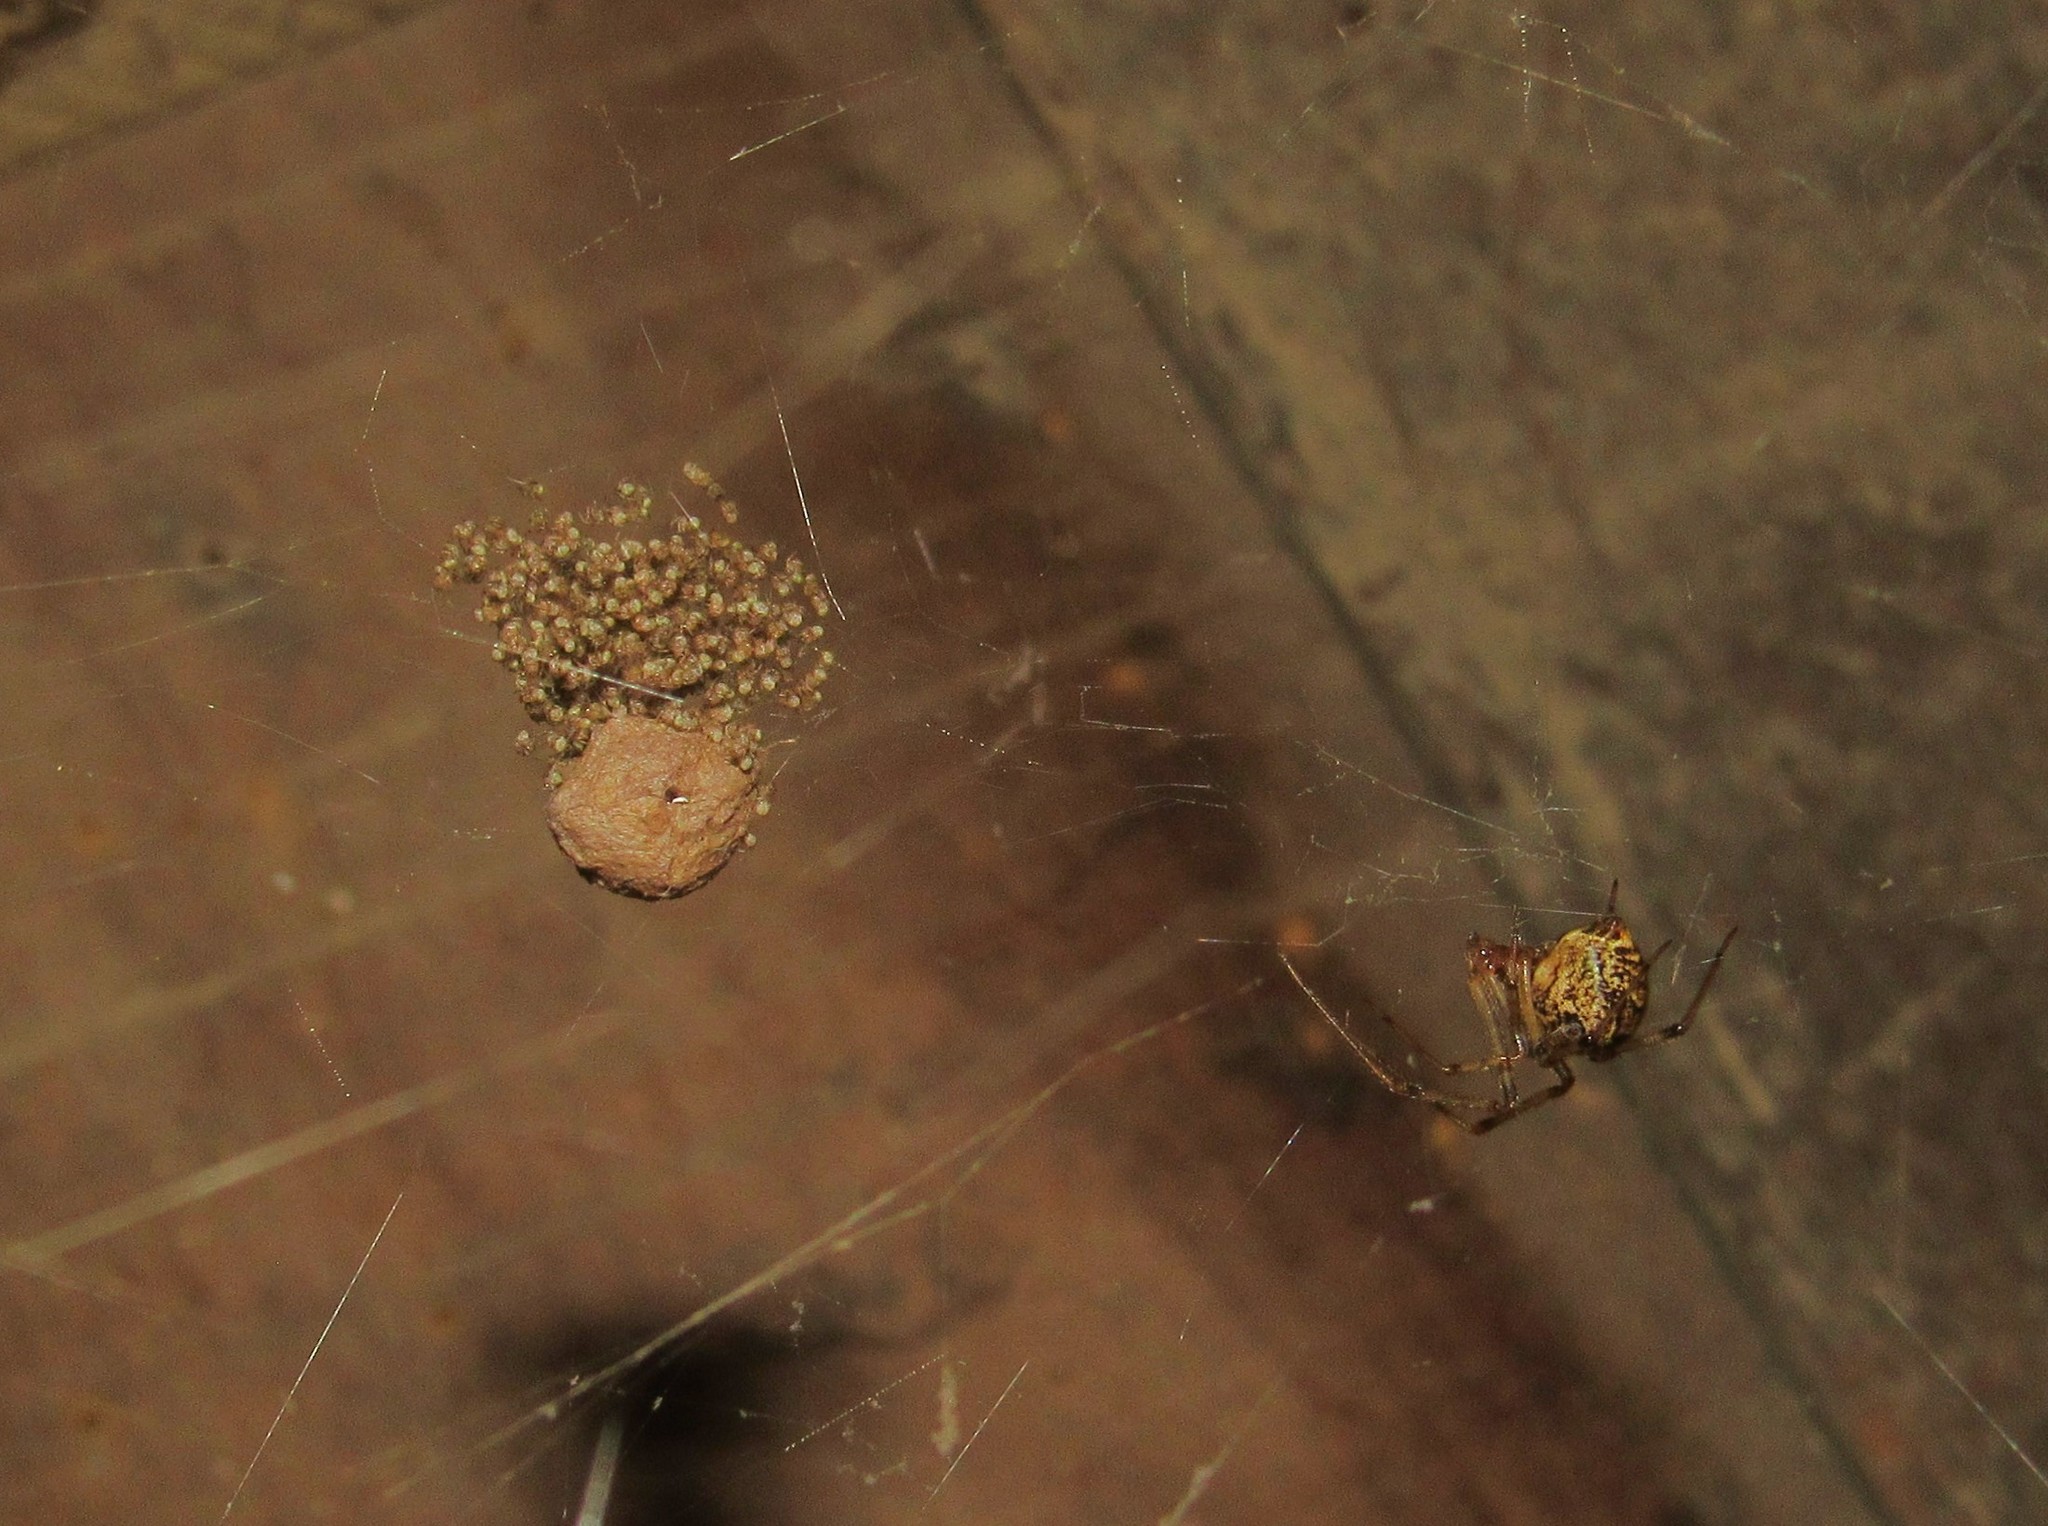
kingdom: Animalia
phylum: Arthropoda
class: Arachnida
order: Araneae
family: Theridiidae
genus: Parasteatoda
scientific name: Parasteatoda tepidariorum
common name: Common house spider
